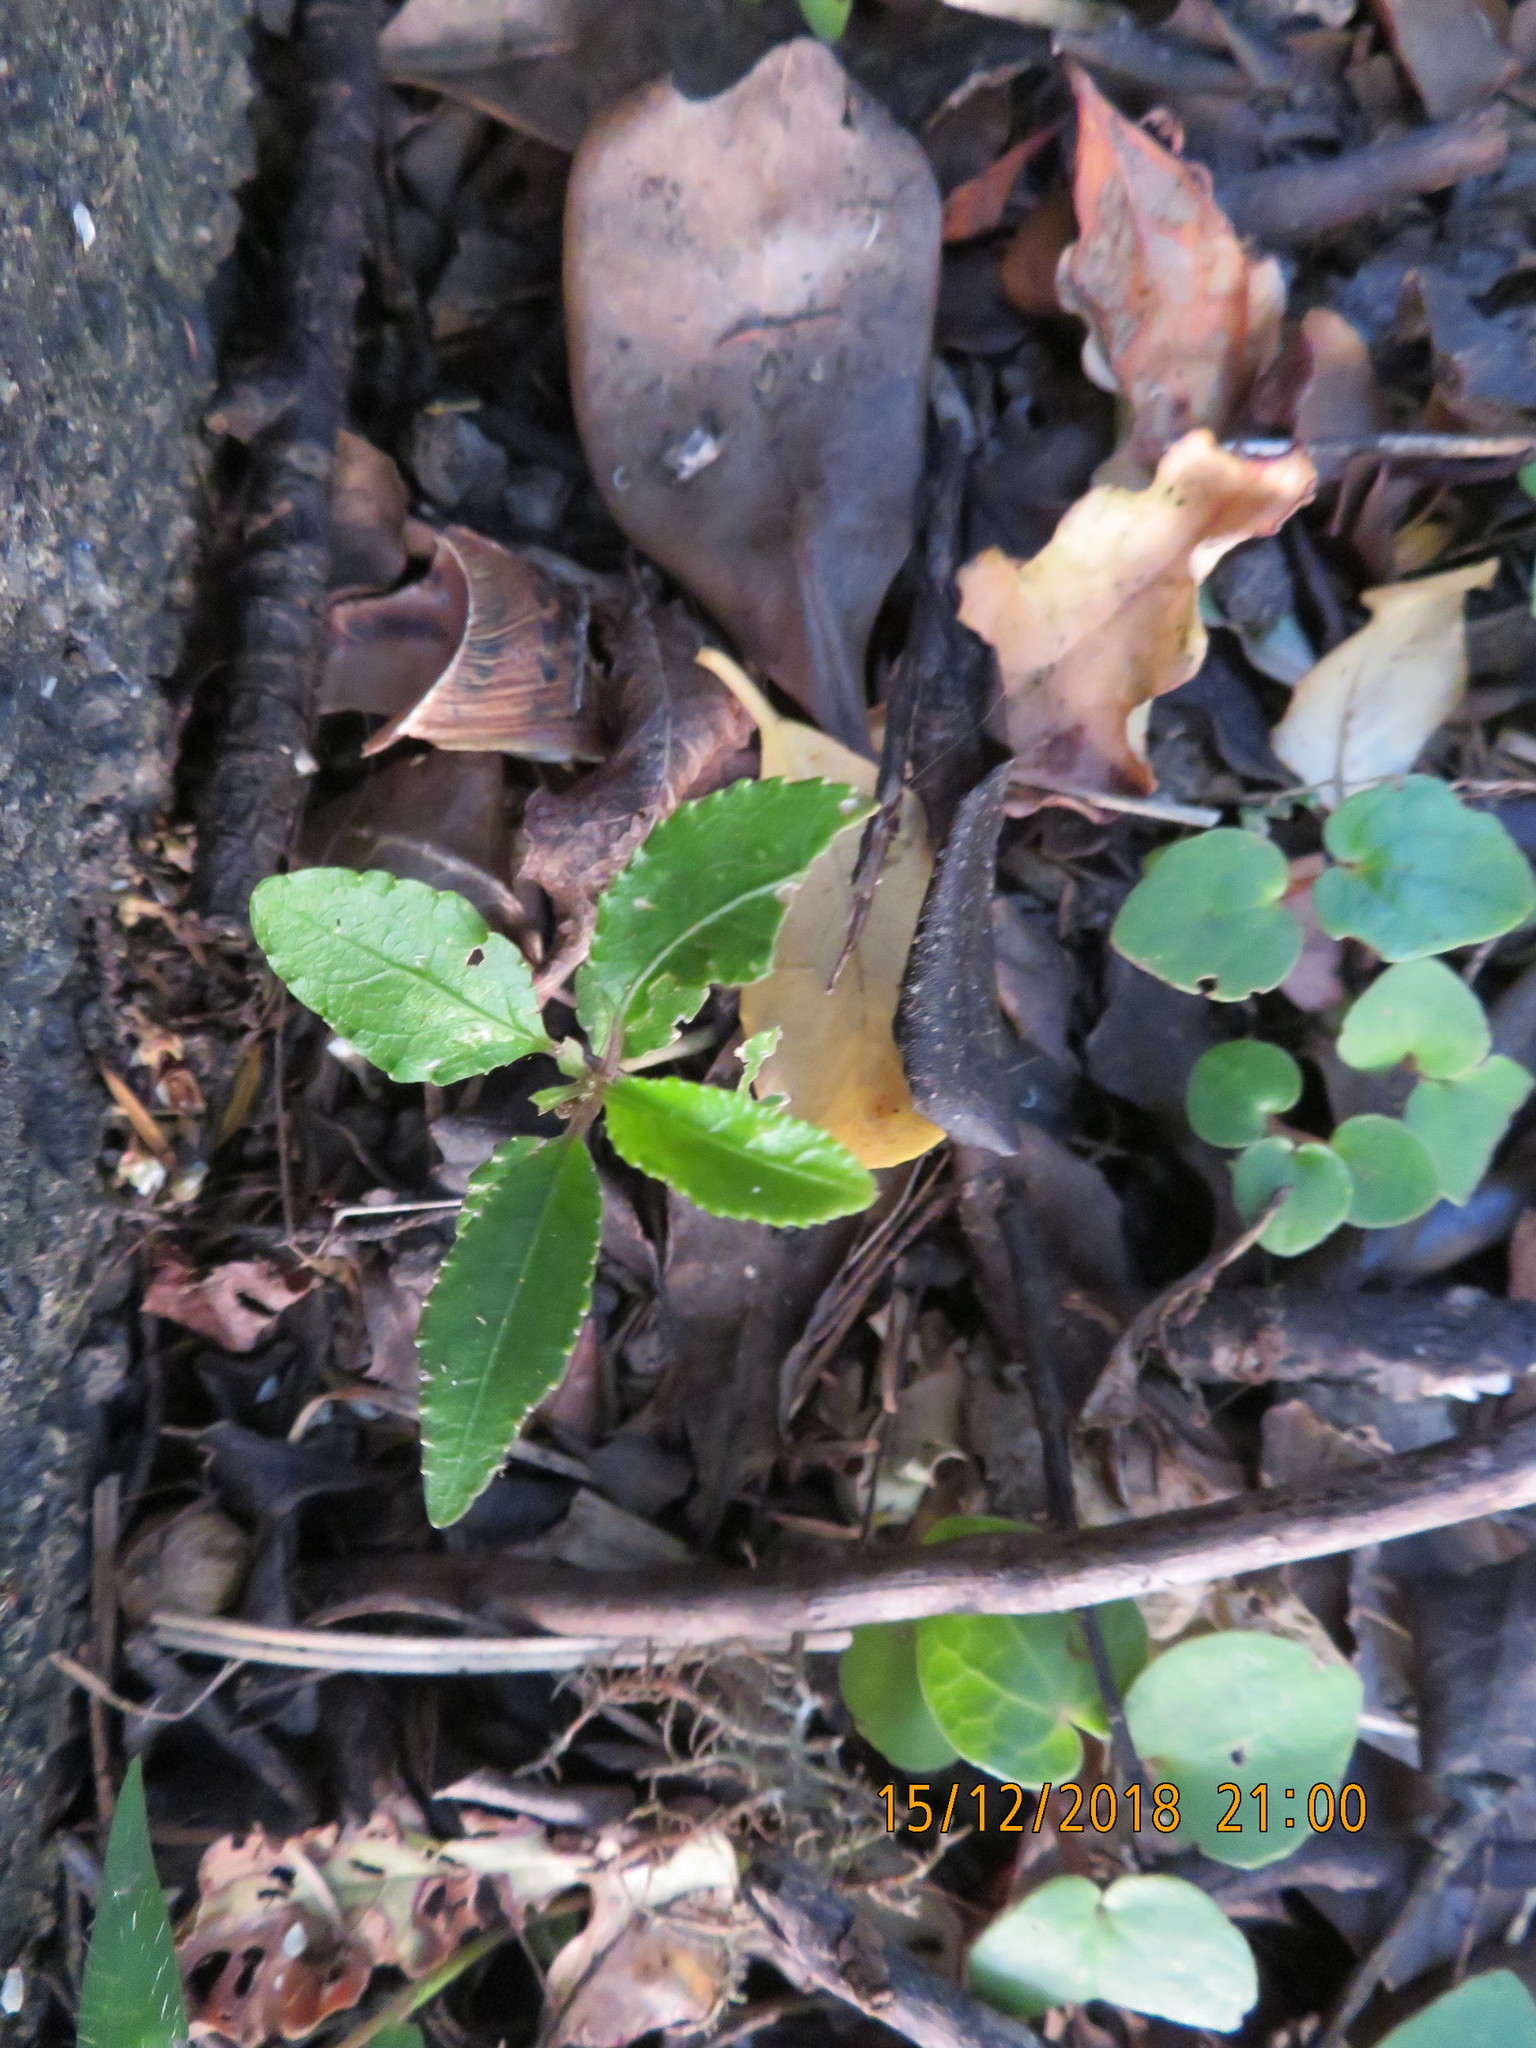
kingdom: Plantae
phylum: Tracheophyta
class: Magnoliopsida
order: Malpighiales
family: Violaceae
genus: Melicytus
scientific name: Melicytus ramiflorus
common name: Mahoe
